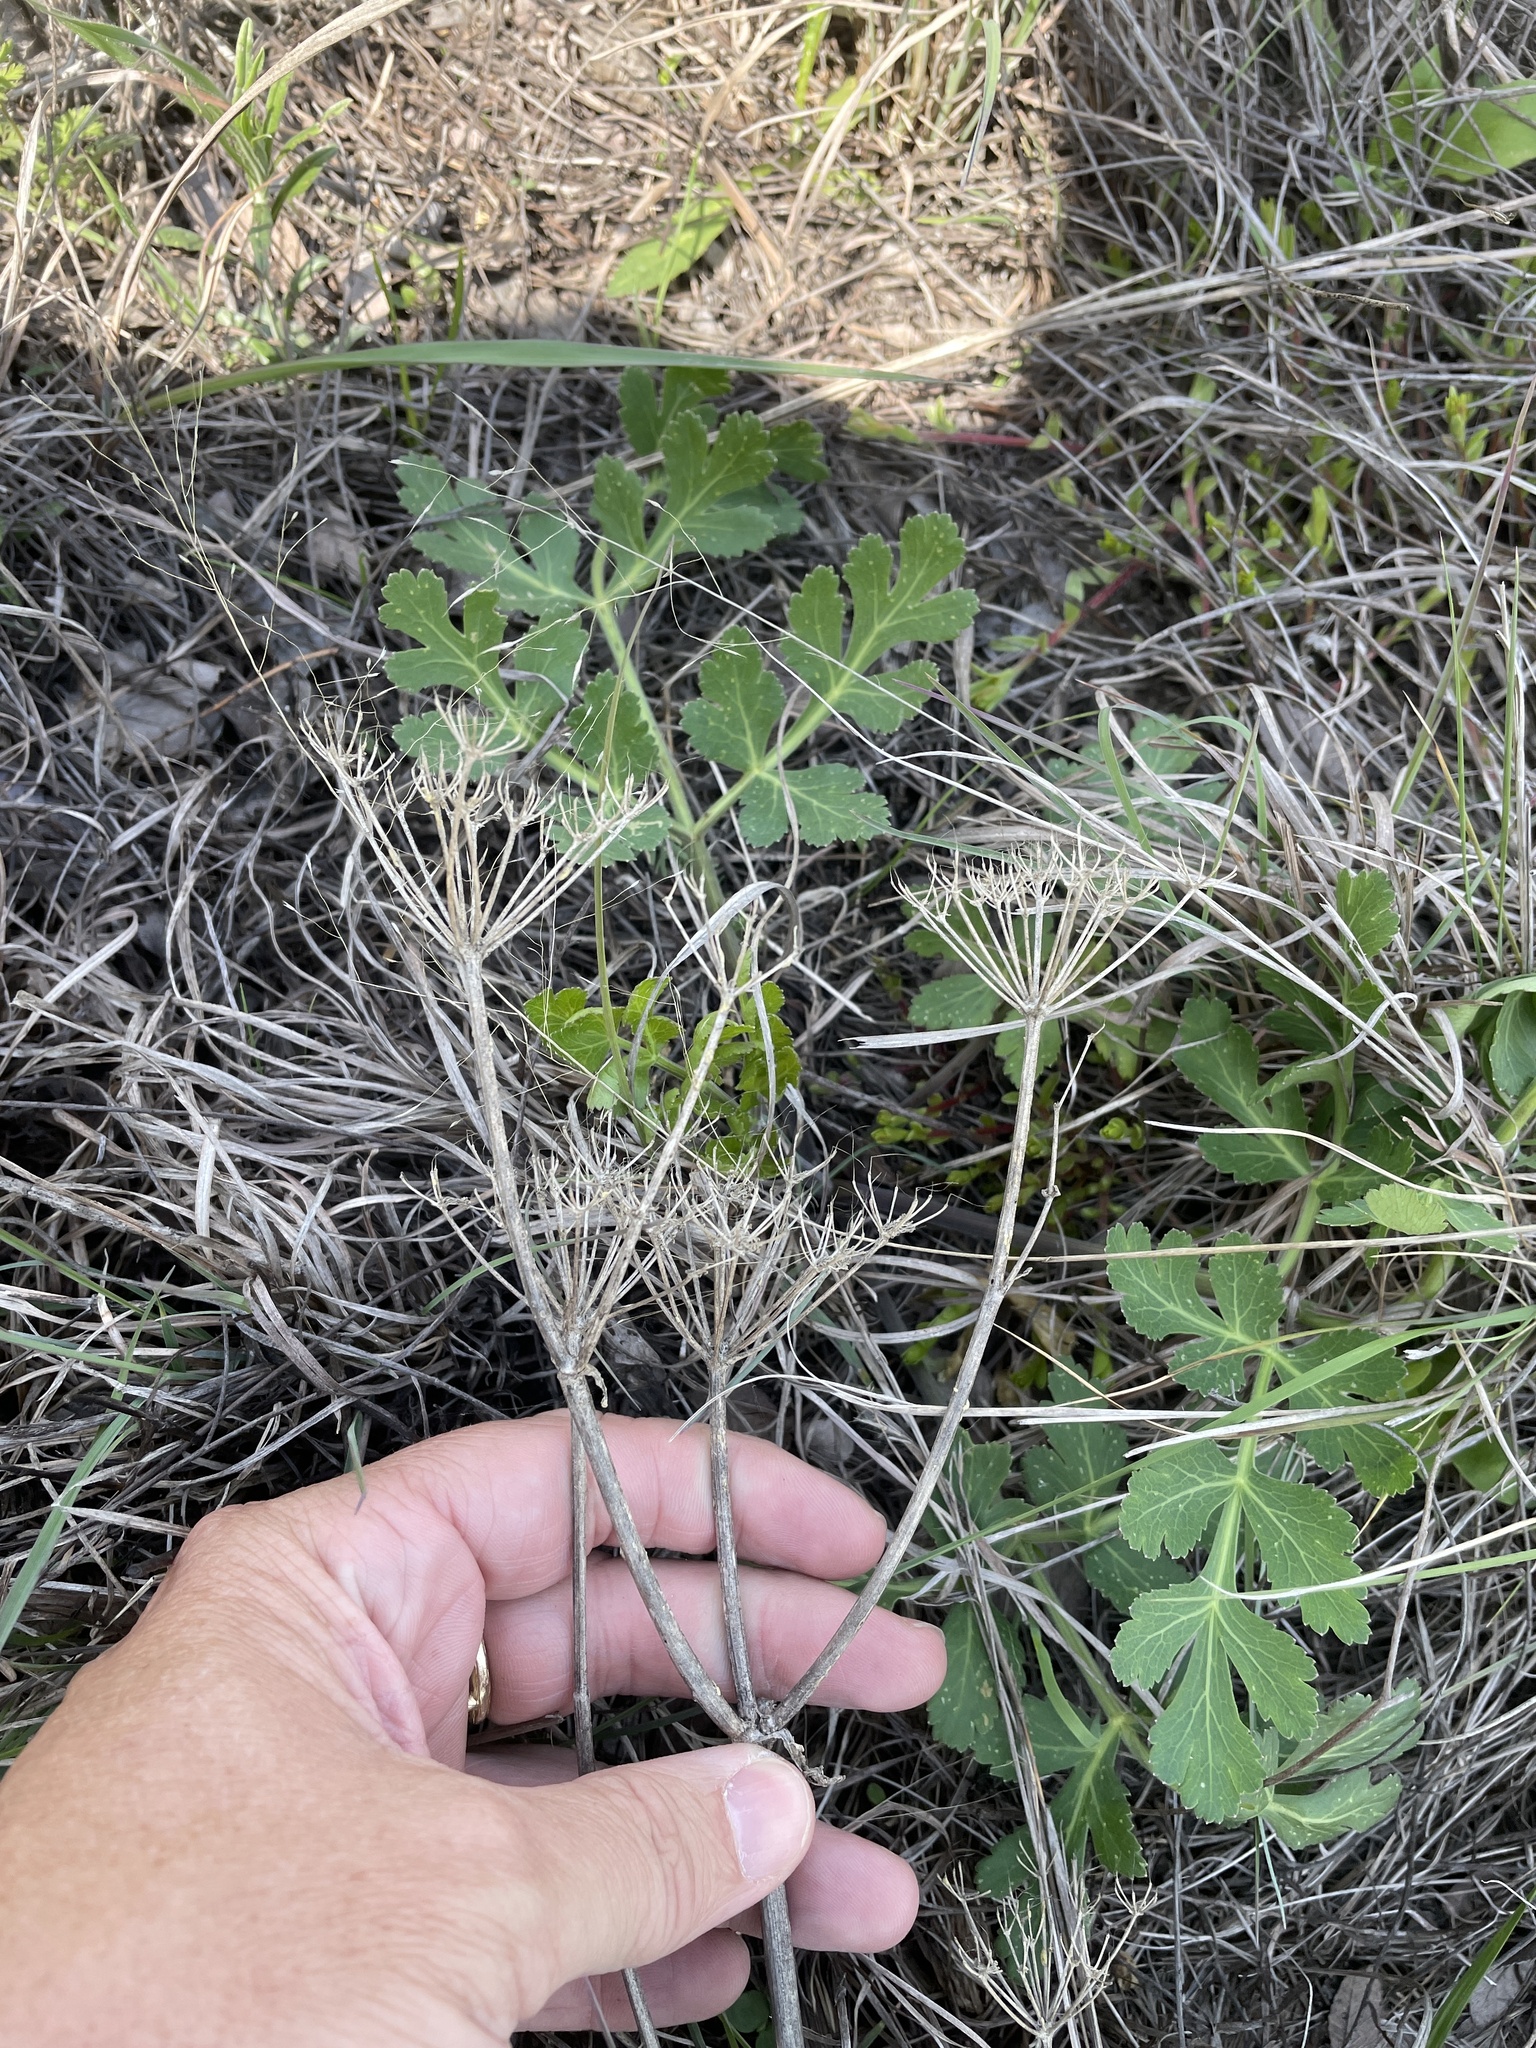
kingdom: Plantae
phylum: Tracheophyta
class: Magnoliopsida
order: Apiales
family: Apiaceae
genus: Polytaenia
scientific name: Polytaenia texana
